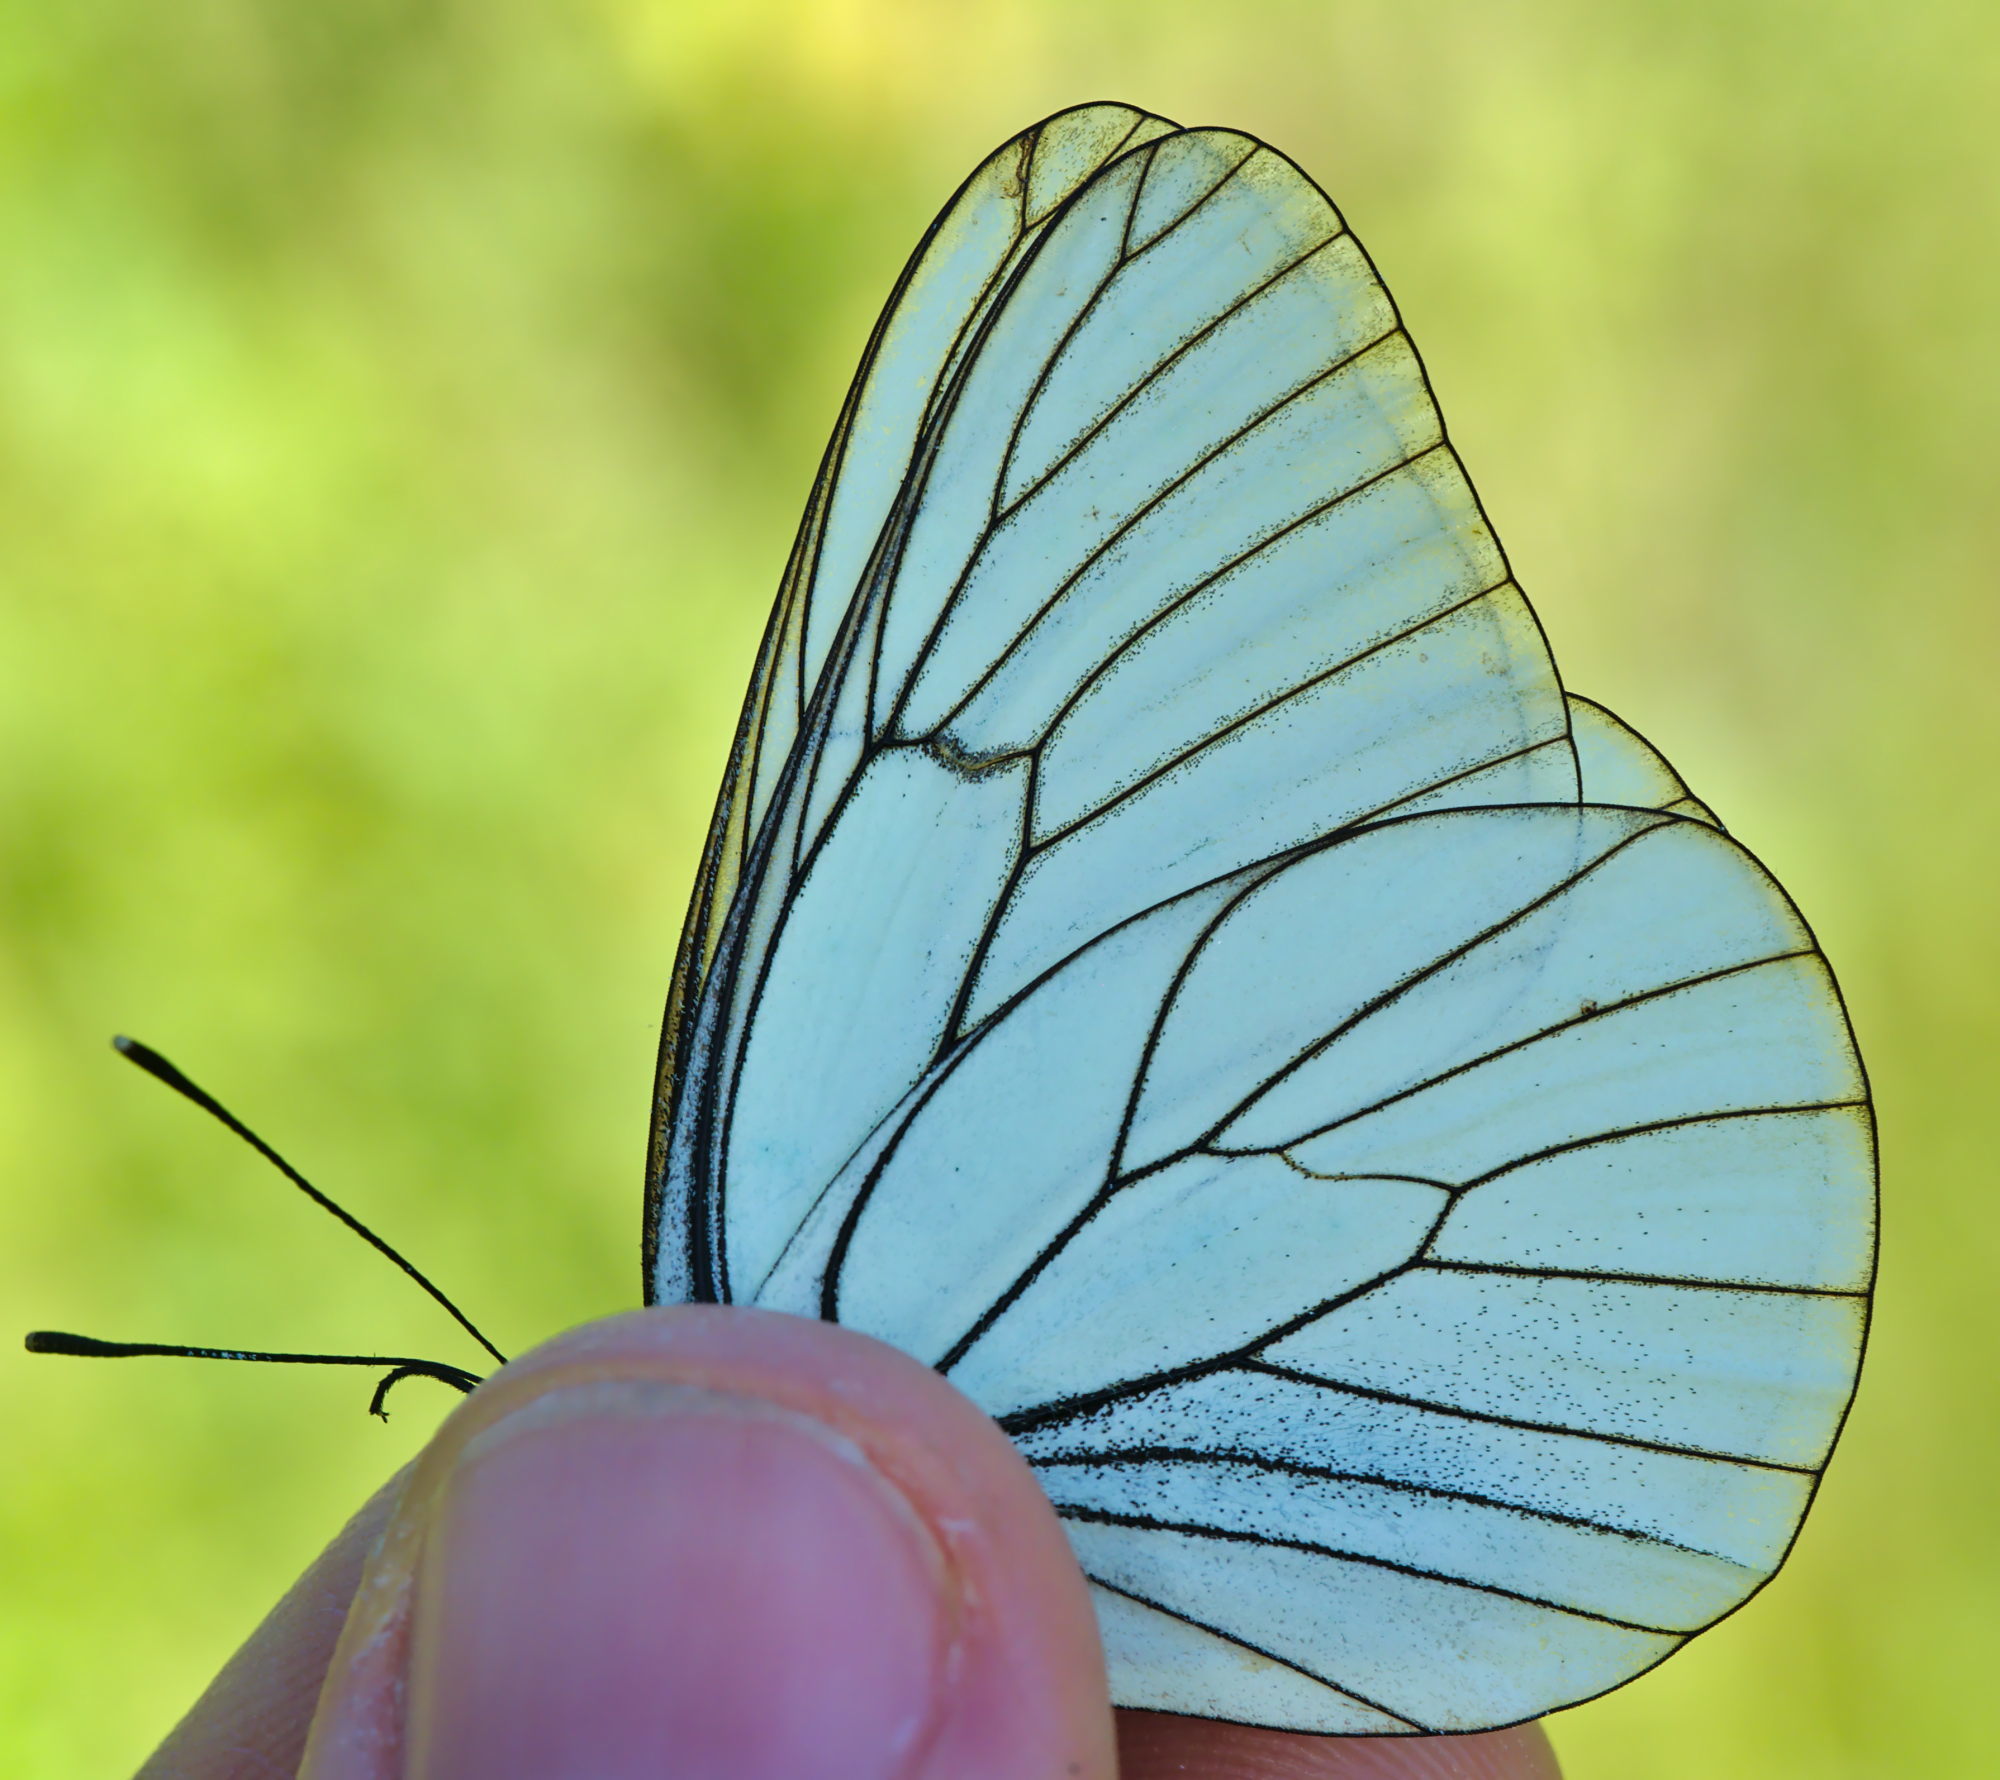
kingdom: Animalia
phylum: Arthropoda
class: Insecta
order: Lepidoptera
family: Pieridae
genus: Aporia
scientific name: Aporia crataegi
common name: Black-veined white
